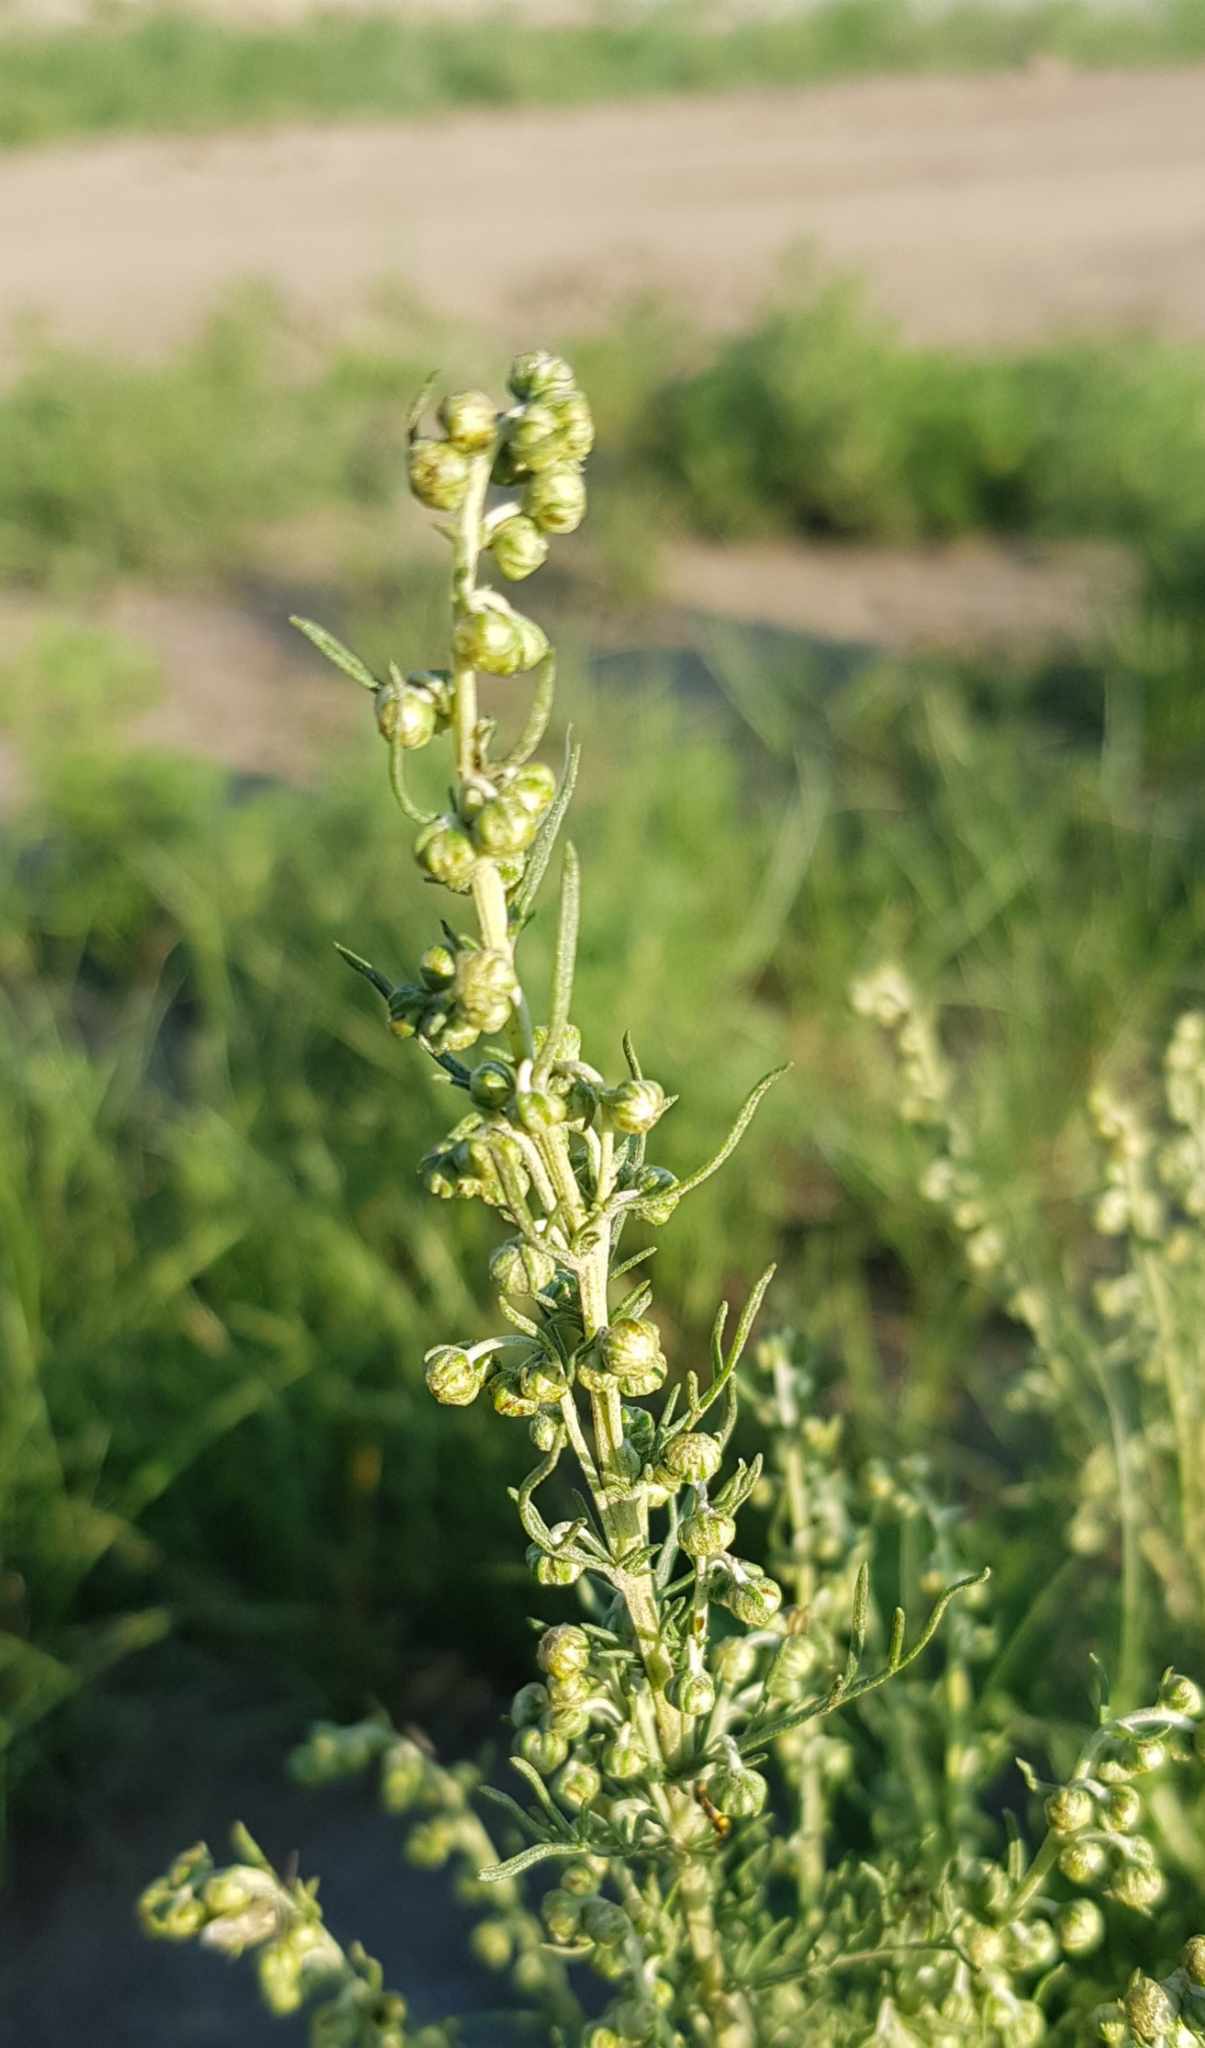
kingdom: Plantae
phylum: Tracheophyta
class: Magnoliopsida
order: Asterales
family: Asteraceae
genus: Artemisia
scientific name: Artemisia adamsii
